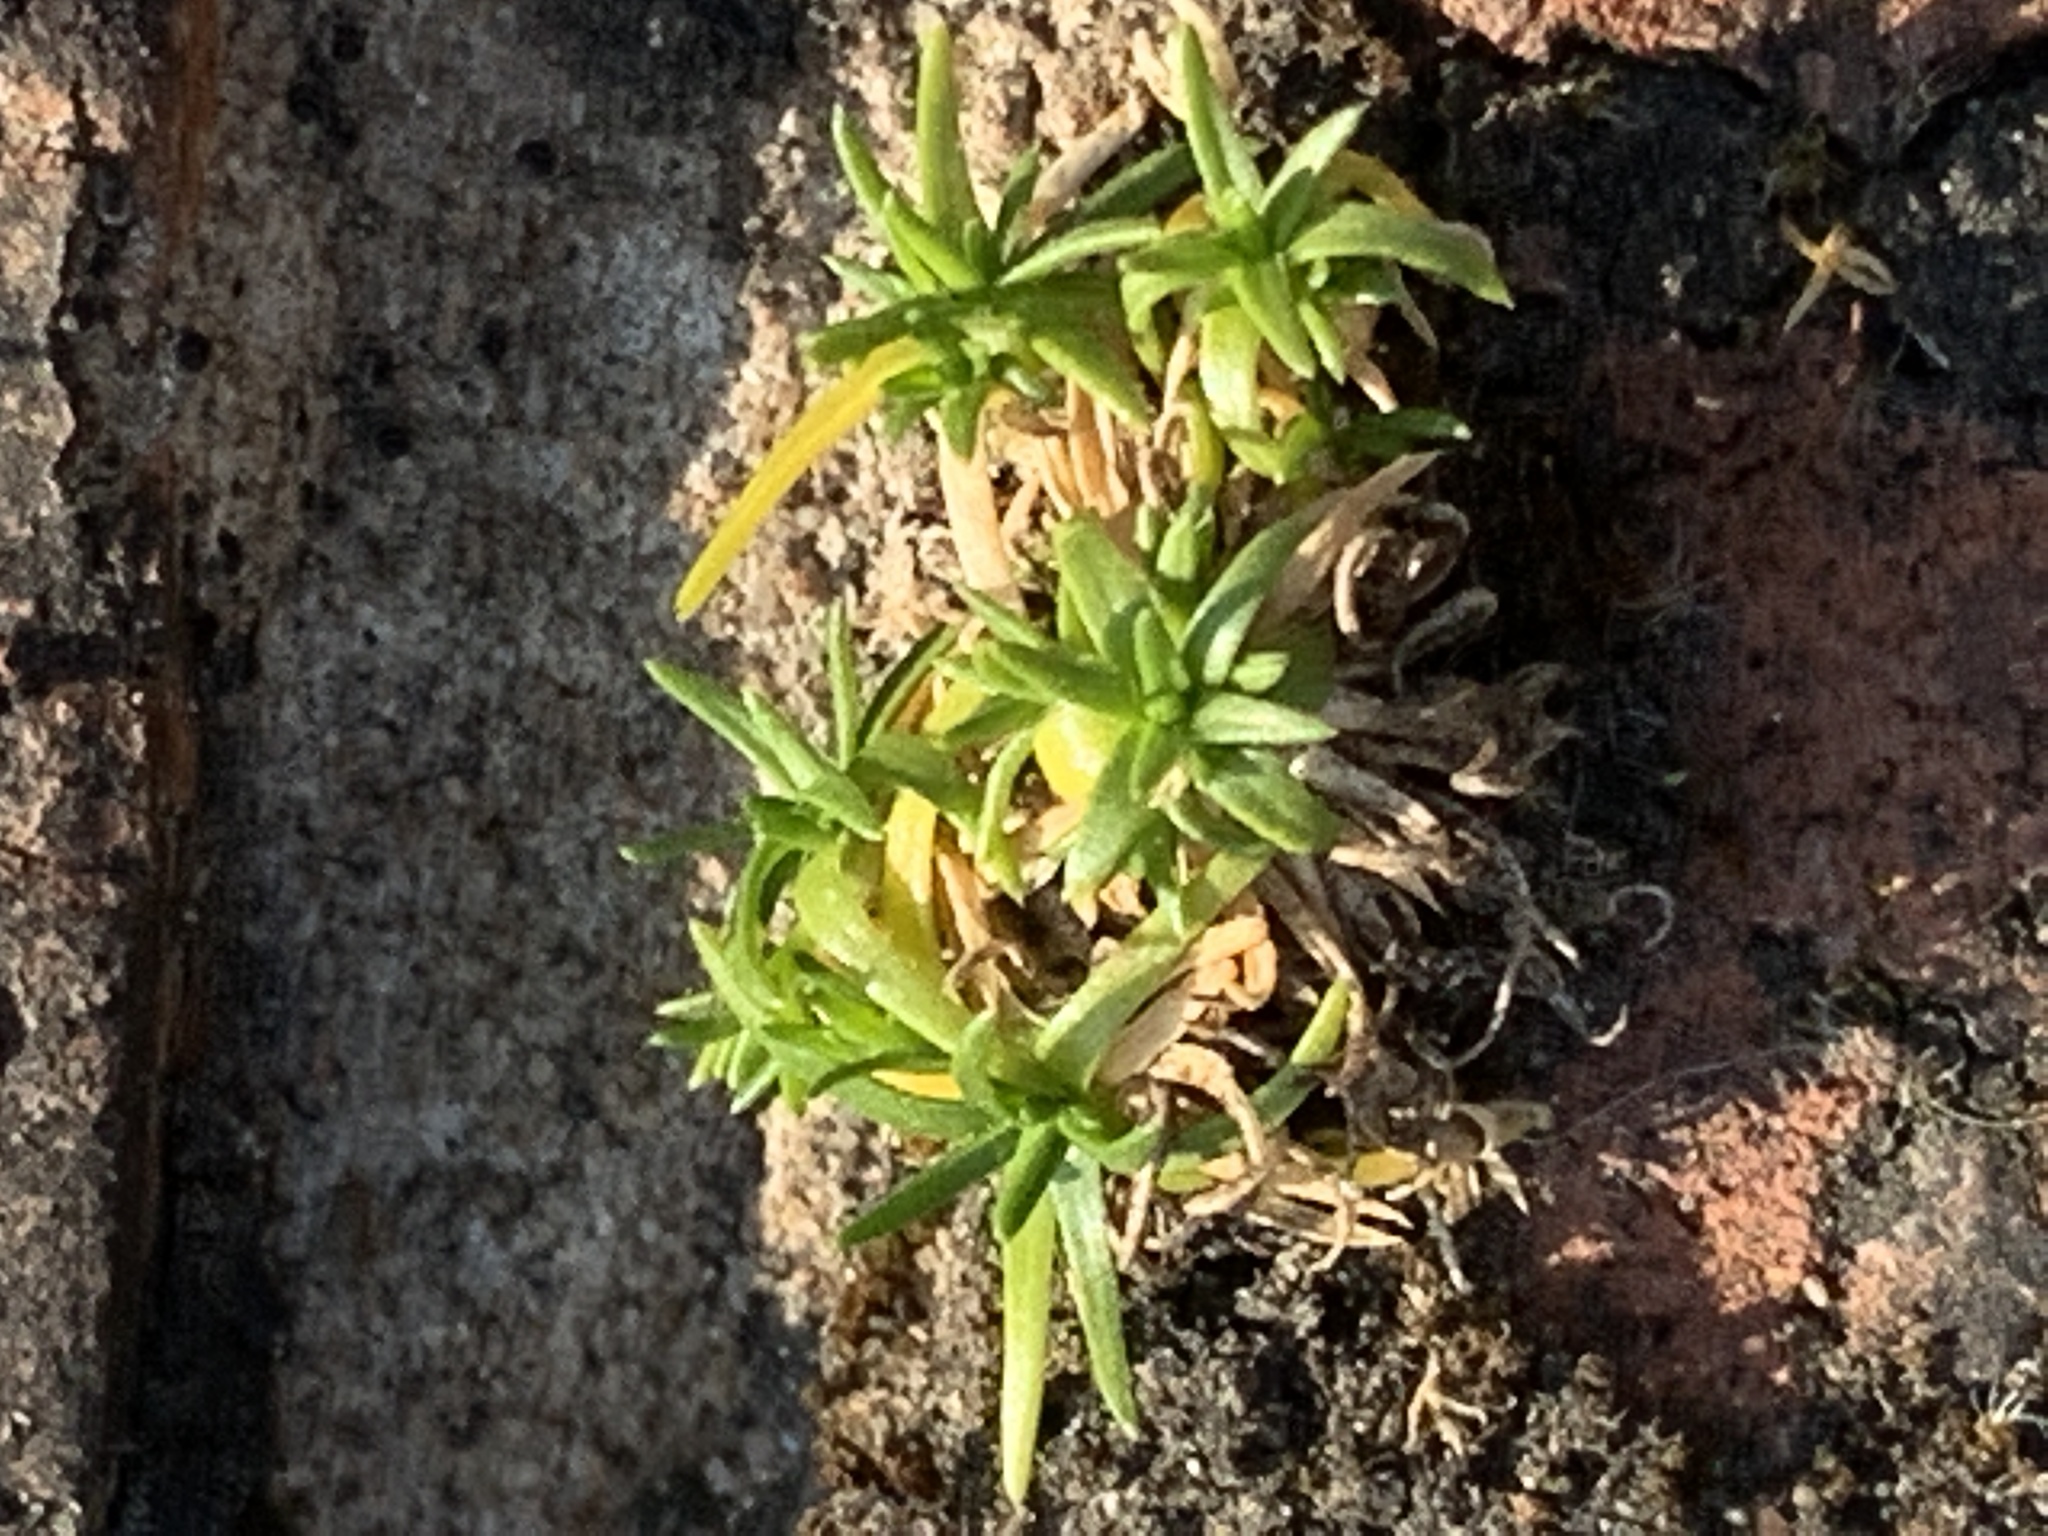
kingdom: Plantae
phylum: Tracheophyta
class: Magnoliopsida
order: Caryophyllales
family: Caryophyllaceae
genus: Sagina
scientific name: Sagina procumbens
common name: Procumbent pearlwort
